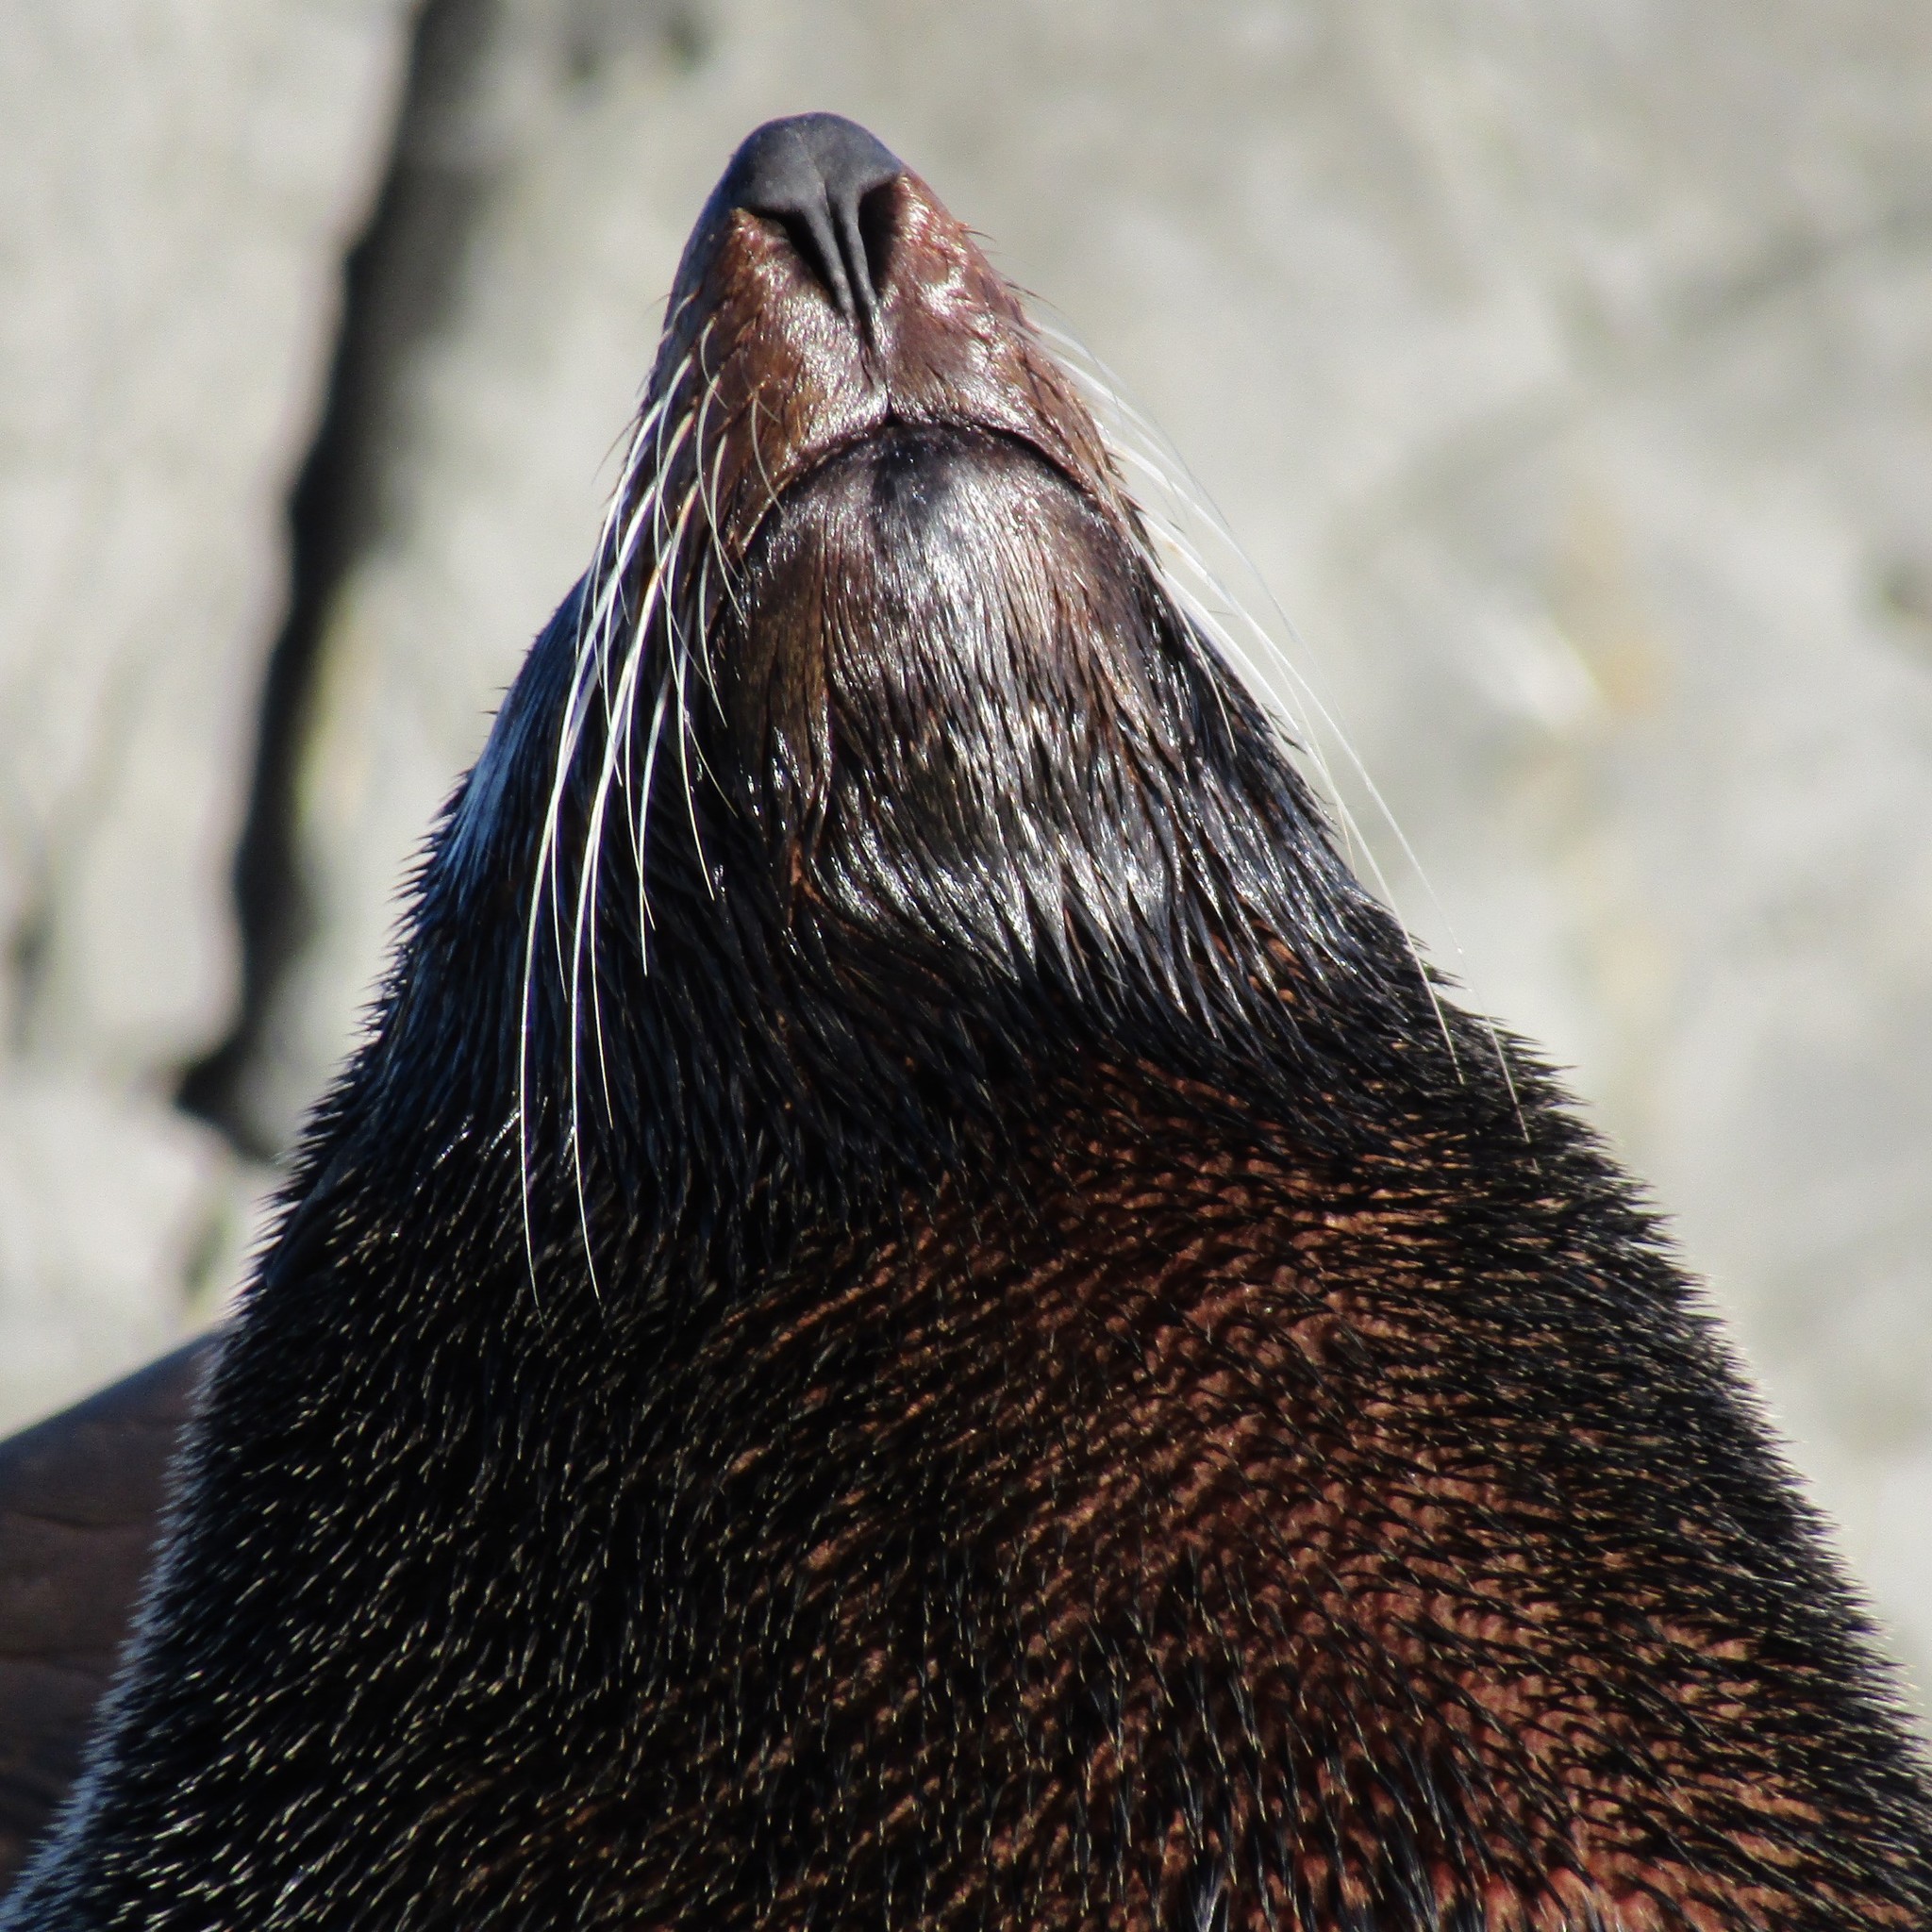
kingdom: Animalia
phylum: Chordata
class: Mammalia
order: Carnivora
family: Otariidae
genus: Arctocephalus
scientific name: Arctocephalus forsteri
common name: New zealand fur seal
